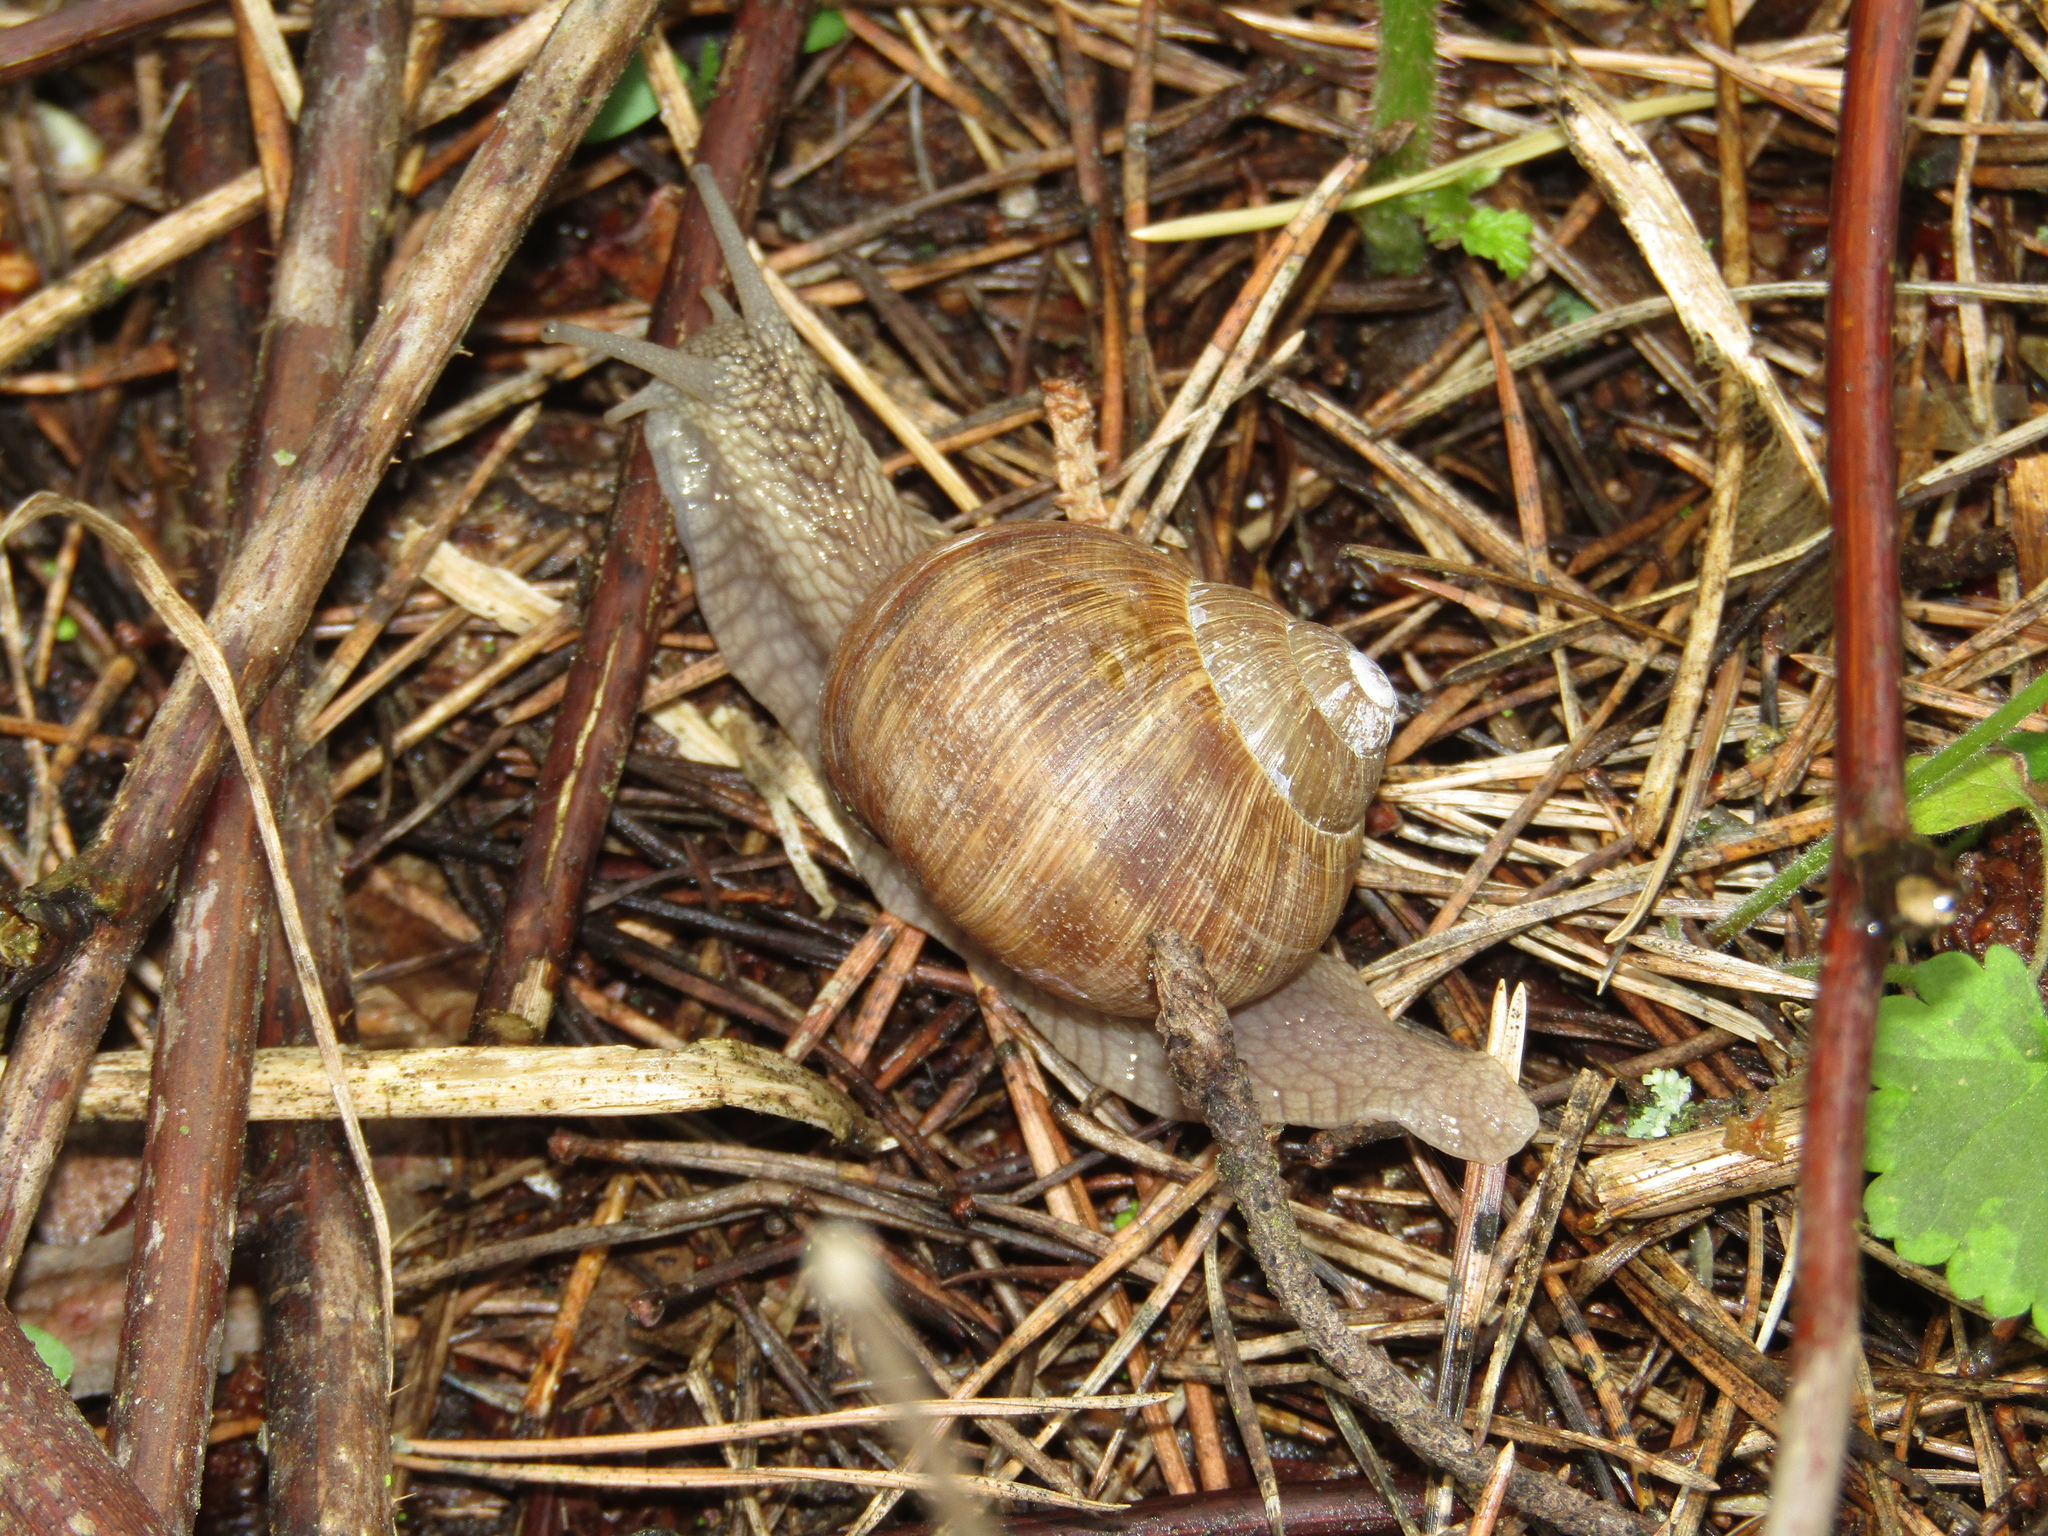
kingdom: Animalia
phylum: Mollusca
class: Gastropoda
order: Stylommatophora
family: Helicidae
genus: Helix
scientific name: Helix pomatia
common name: Roman snail
